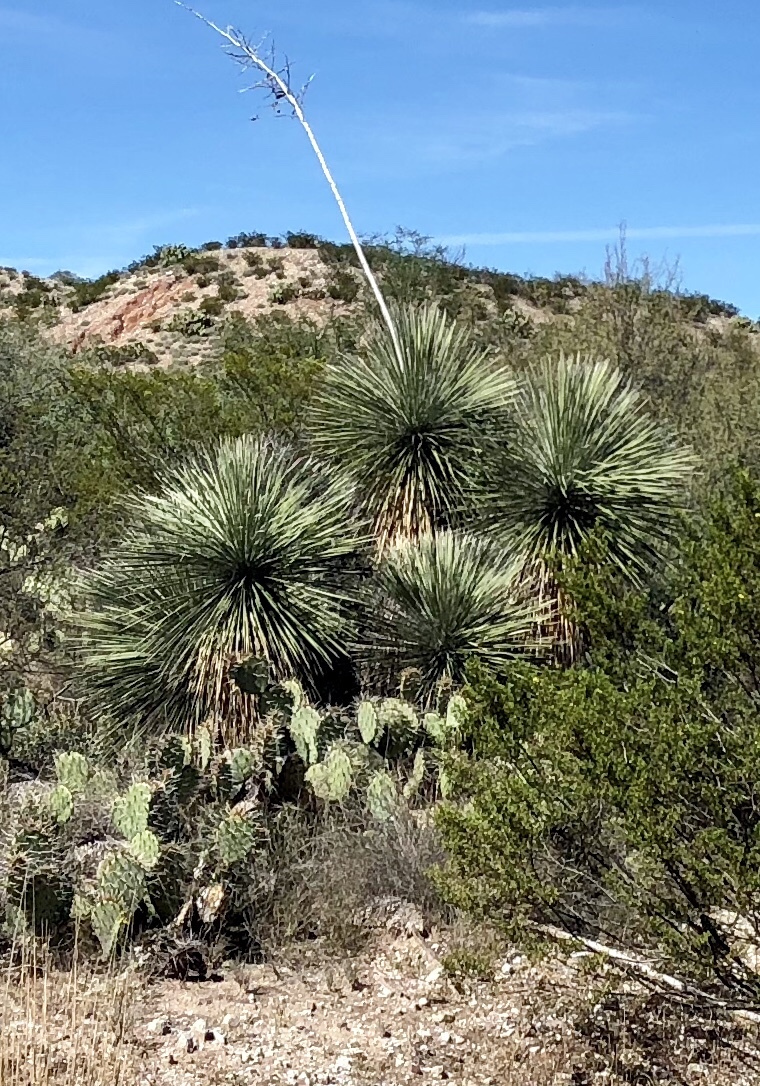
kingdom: Plantae
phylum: Tracheophyta
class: Liliopsida
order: Asparagales
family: Asparagaceae
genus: Yucca
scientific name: Yucca elata
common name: Palmella
